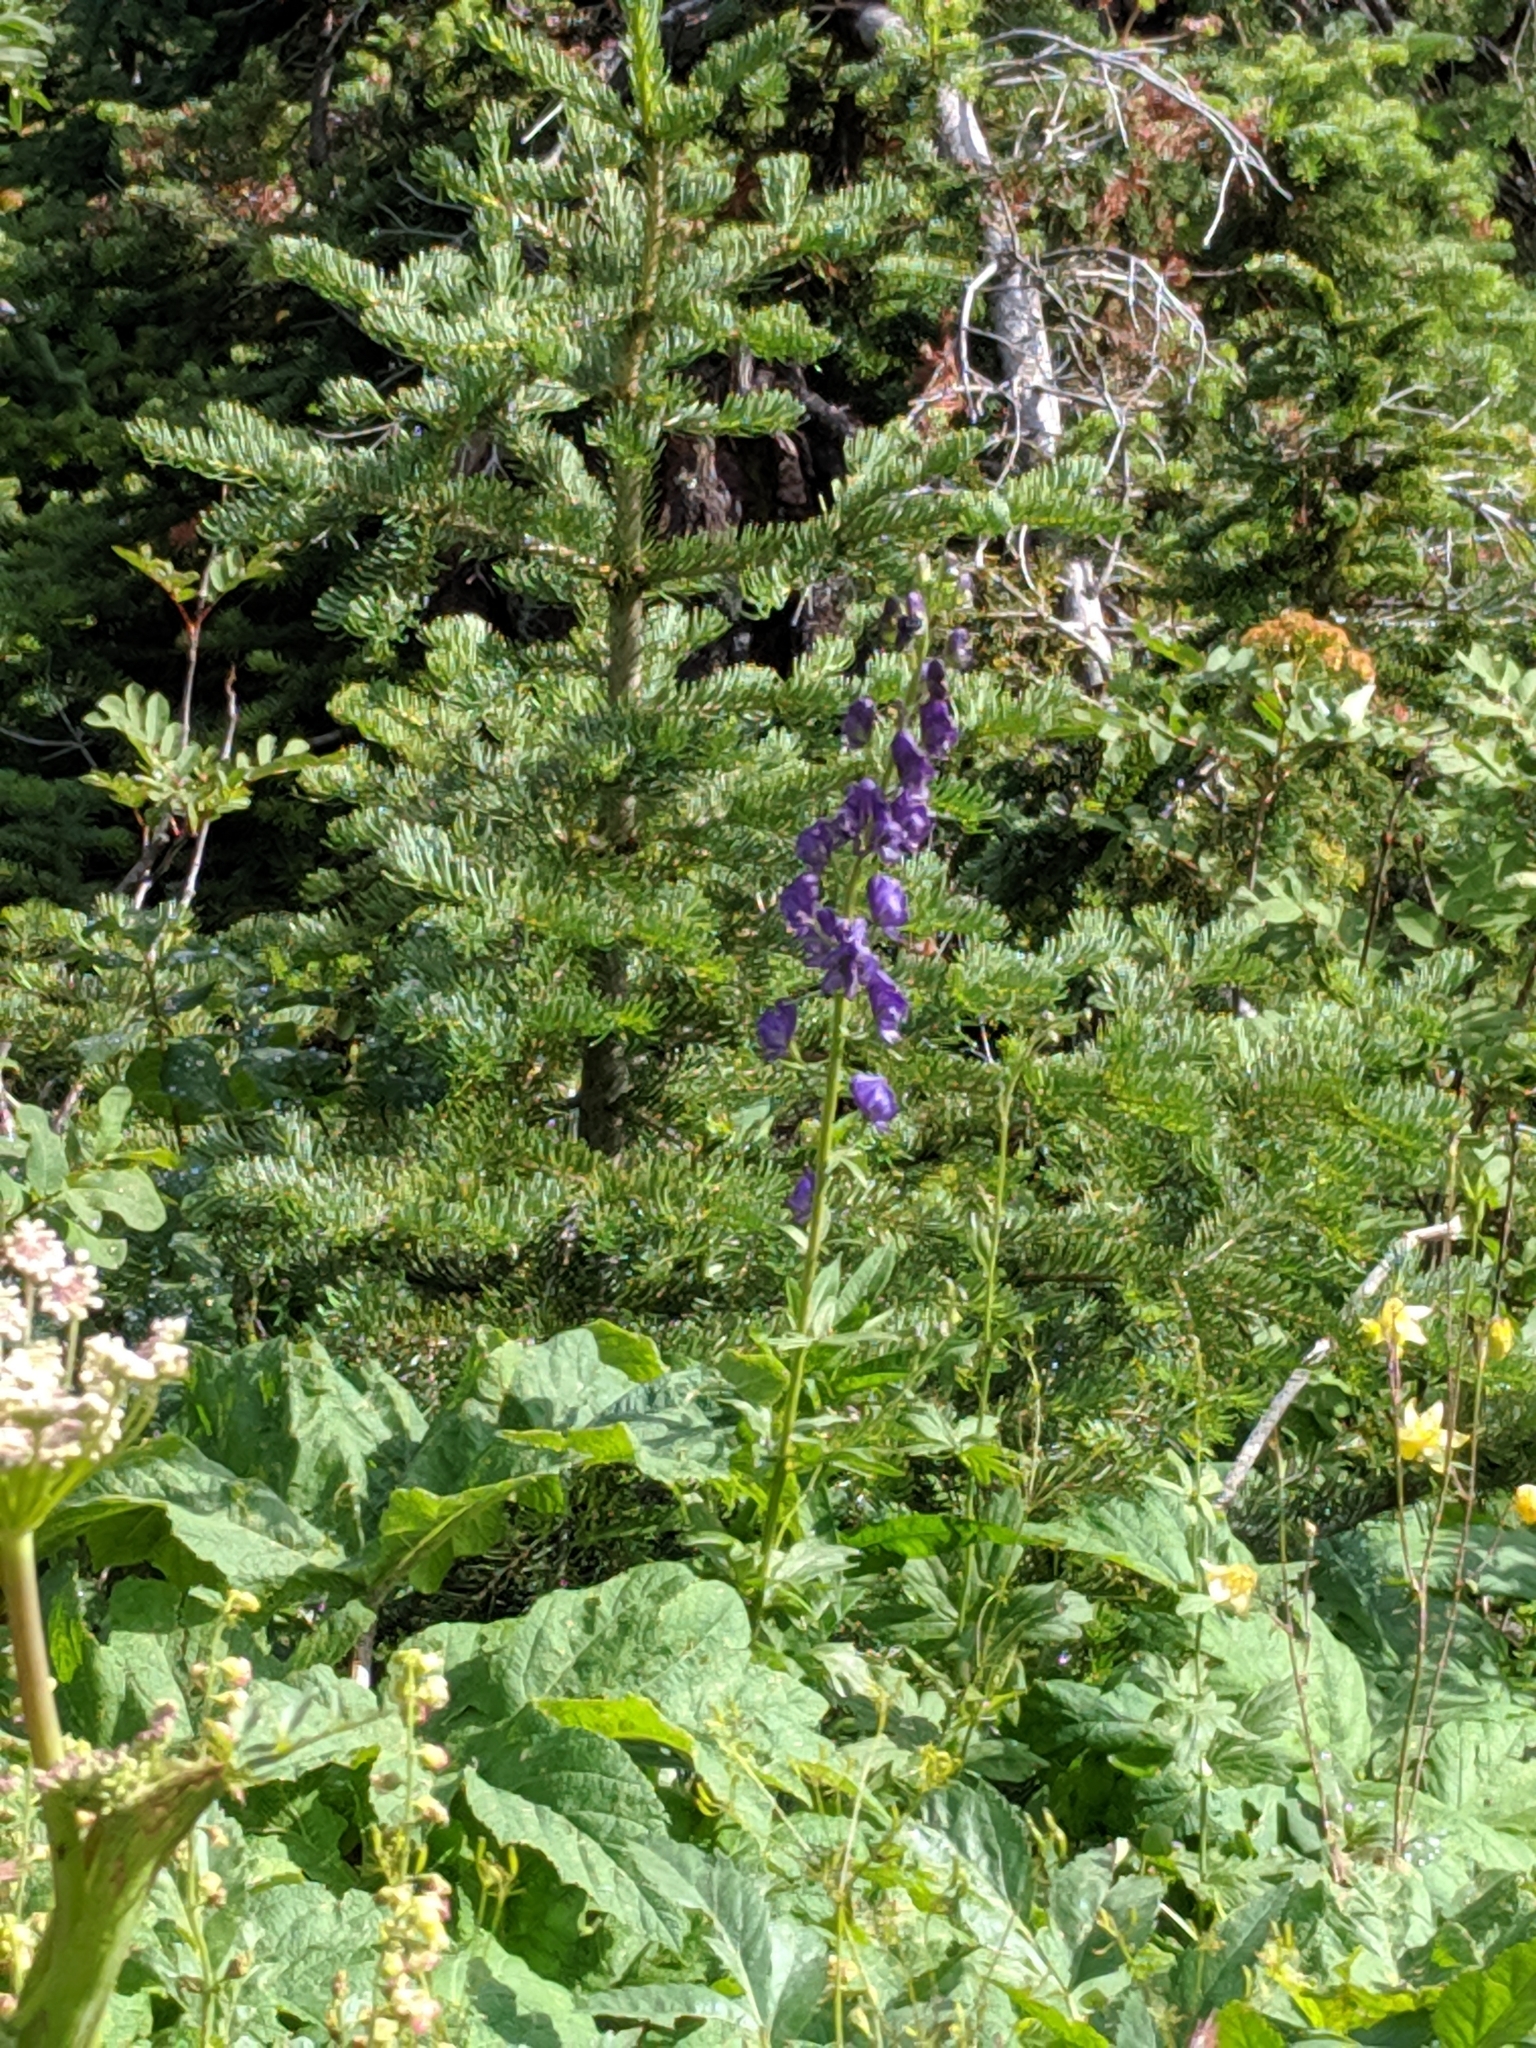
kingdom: Plantae
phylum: Tracheophyta
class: Magnoliopsida
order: Ranunculales
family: Ranunculaceae
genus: Aconitum
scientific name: Aconitum columbianum
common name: Columbia aconite
